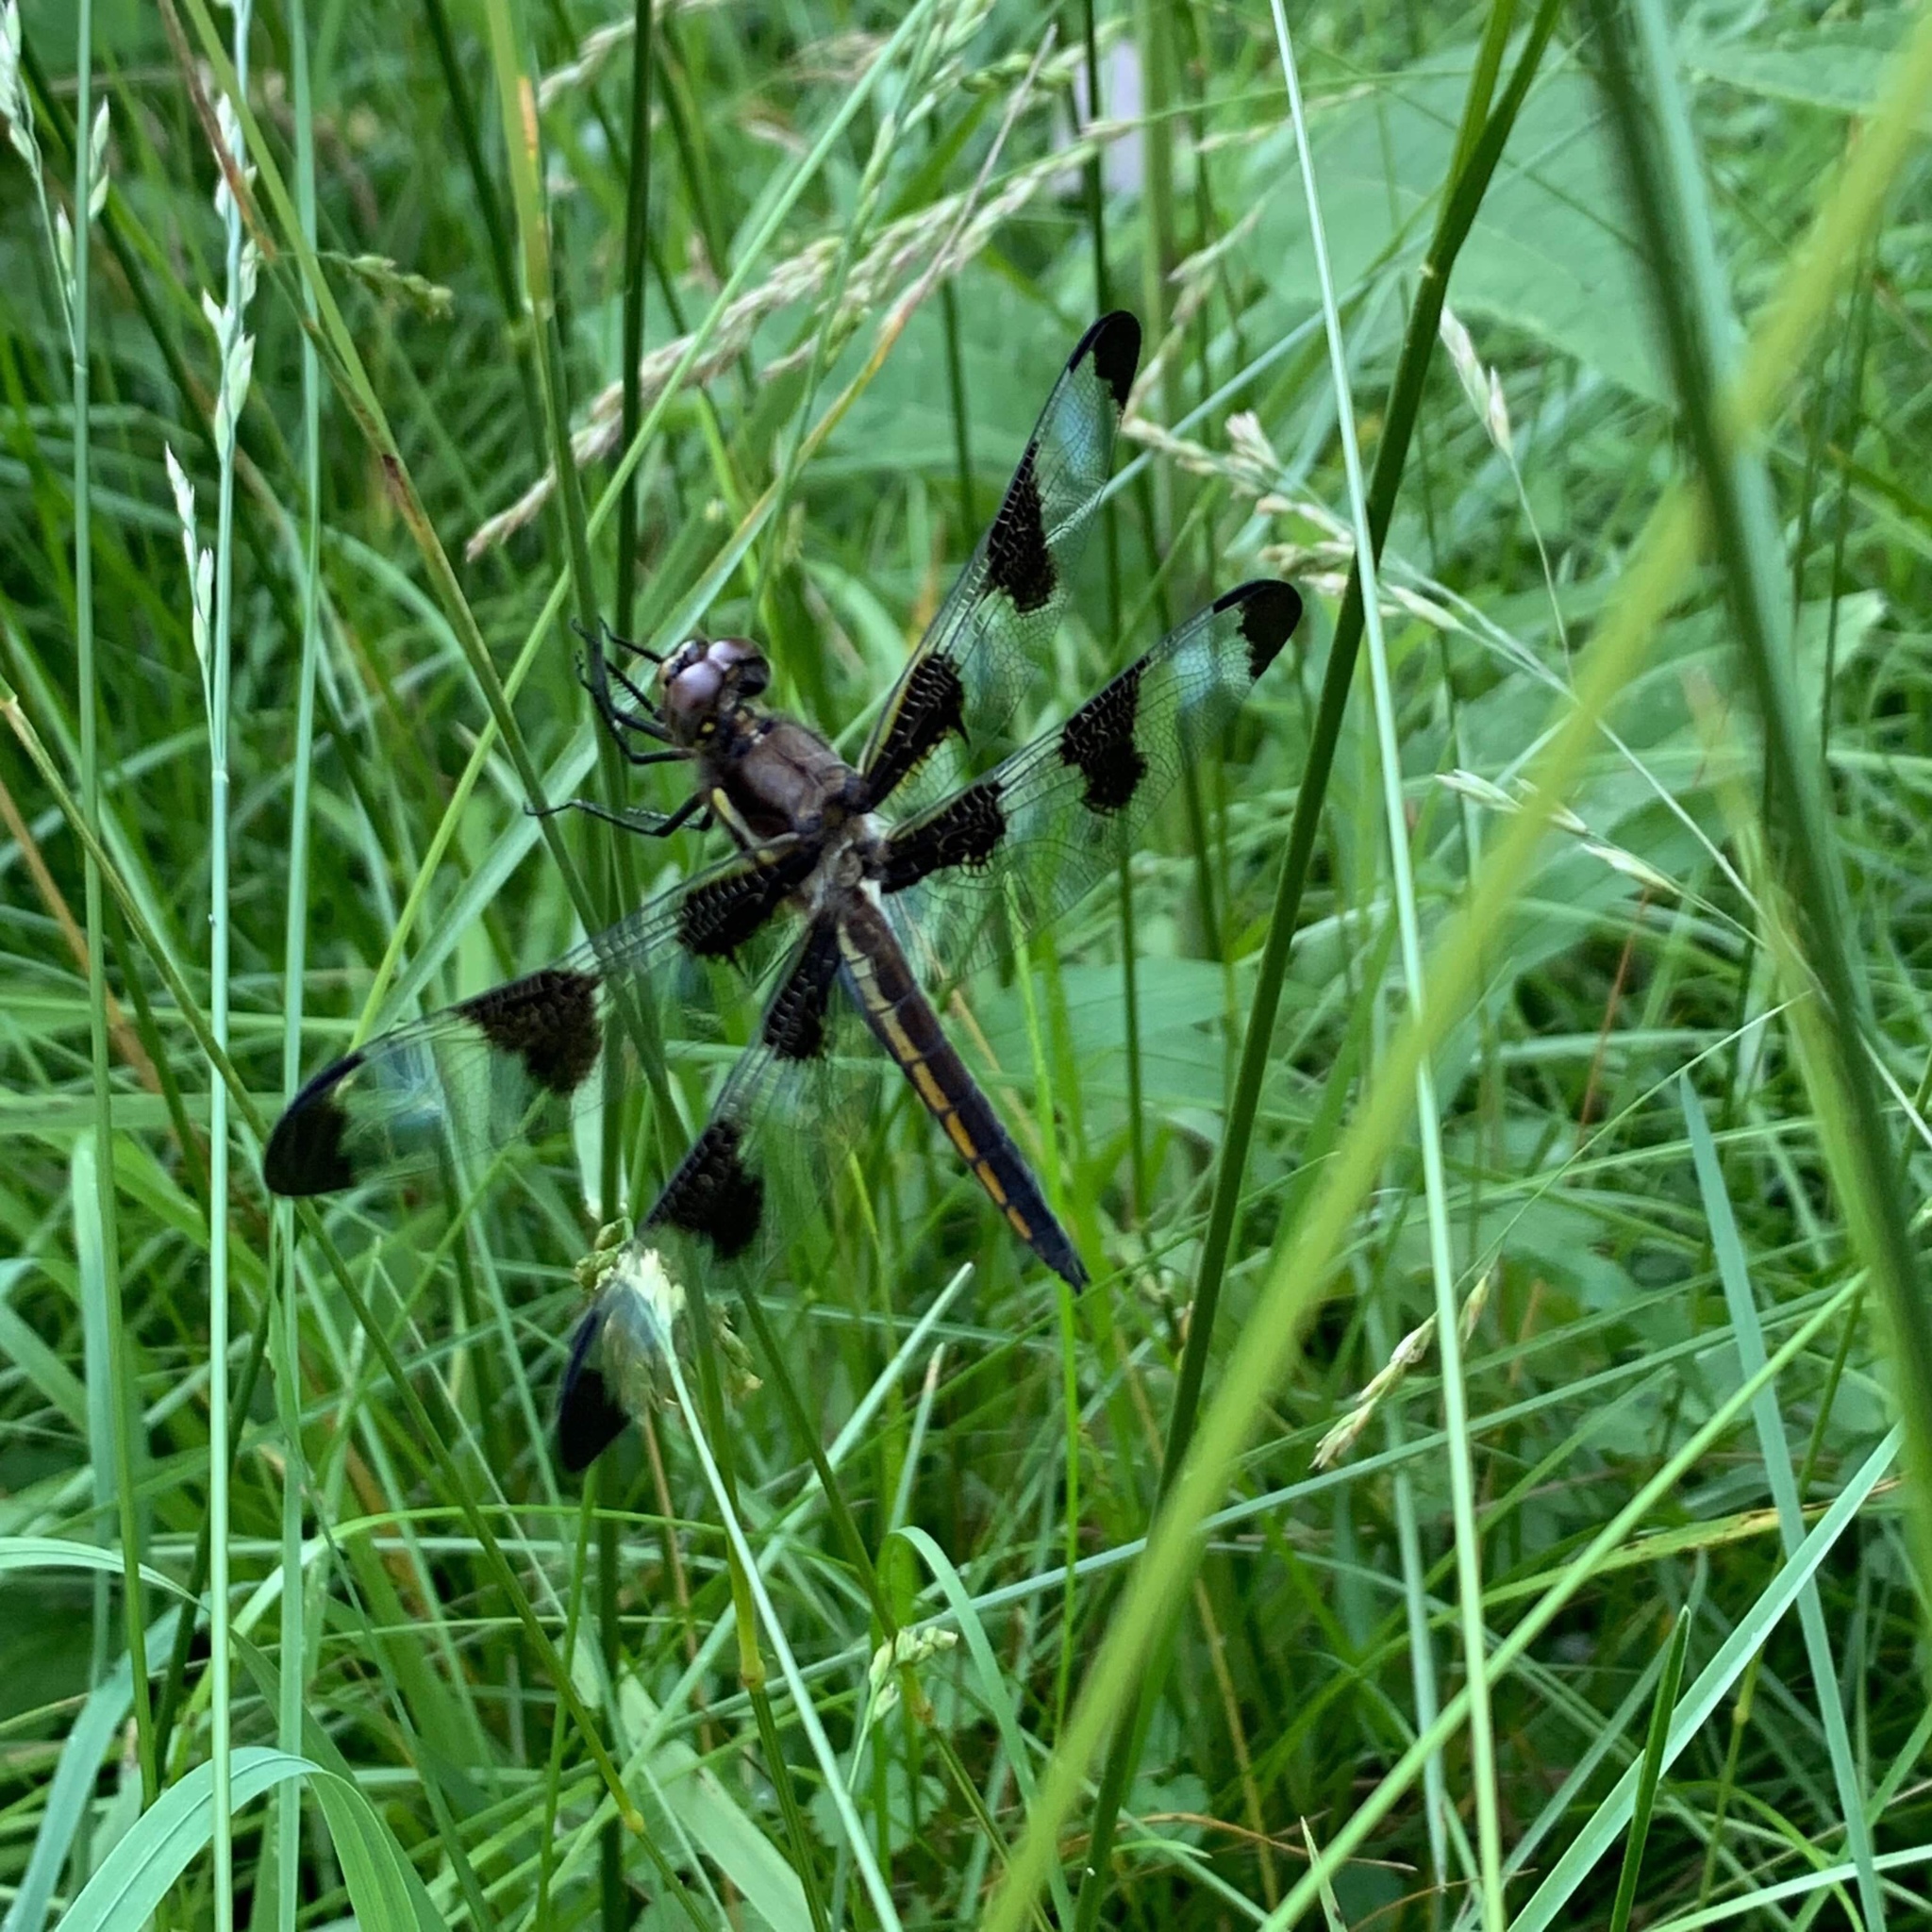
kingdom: Animalia
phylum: Arthropoda
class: Insecta
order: Odonata
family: Libellulidae
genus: Libellula
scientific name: Libellula pulchella
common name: Twelve-spotted skimmer
